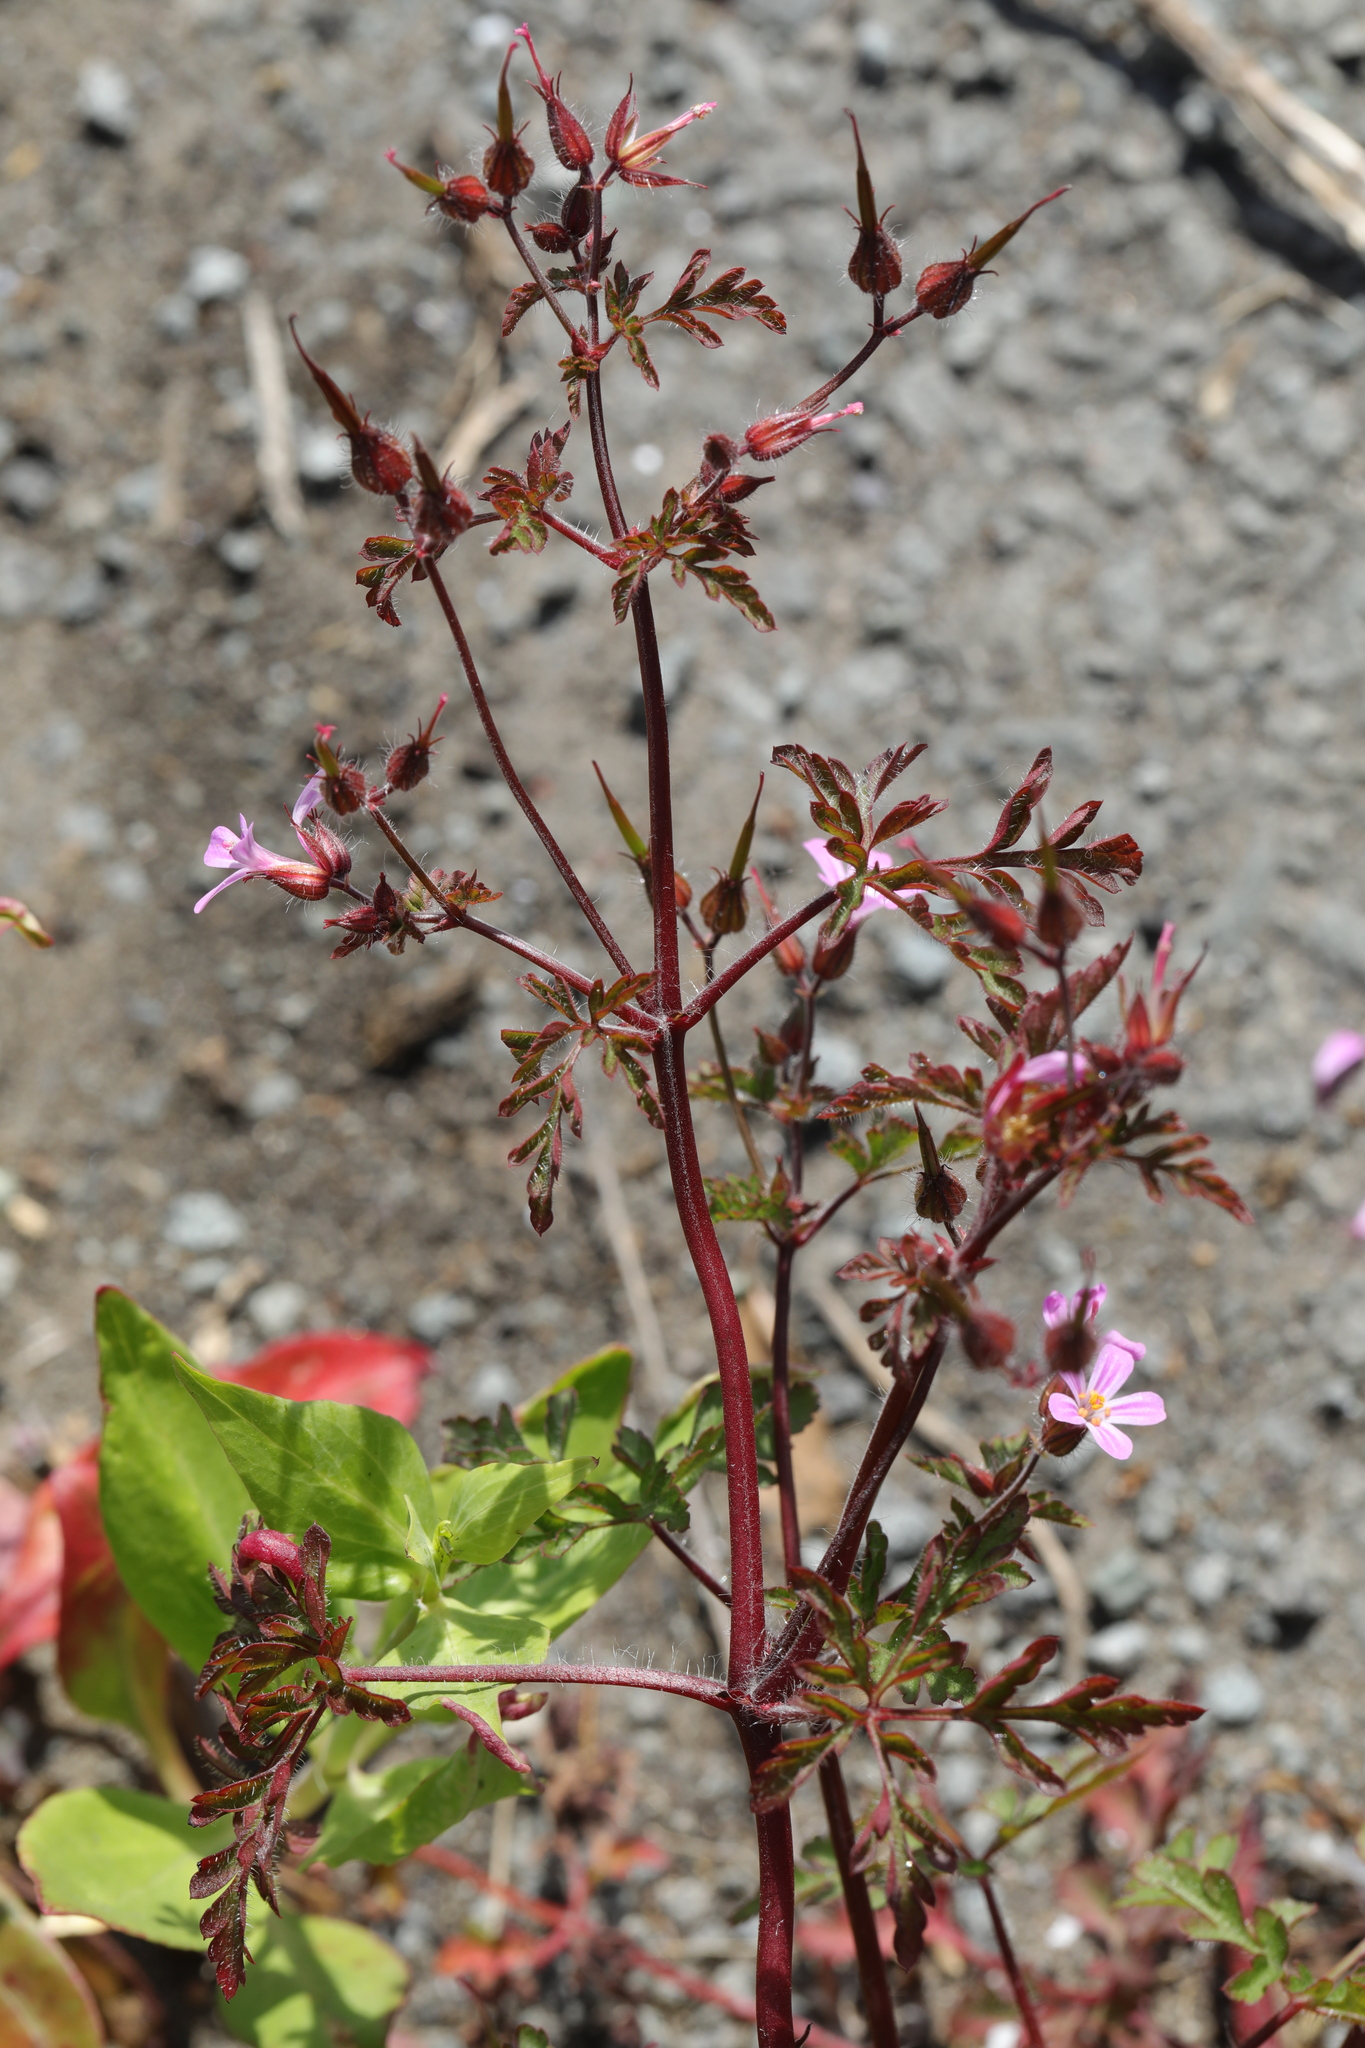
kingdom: Plantae
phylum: Tracheophyta
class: Magnoliopsida
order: Geraniales
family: Geraniaceae
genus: Geranium
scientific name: Geranium robertianum
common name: Herb-robert
